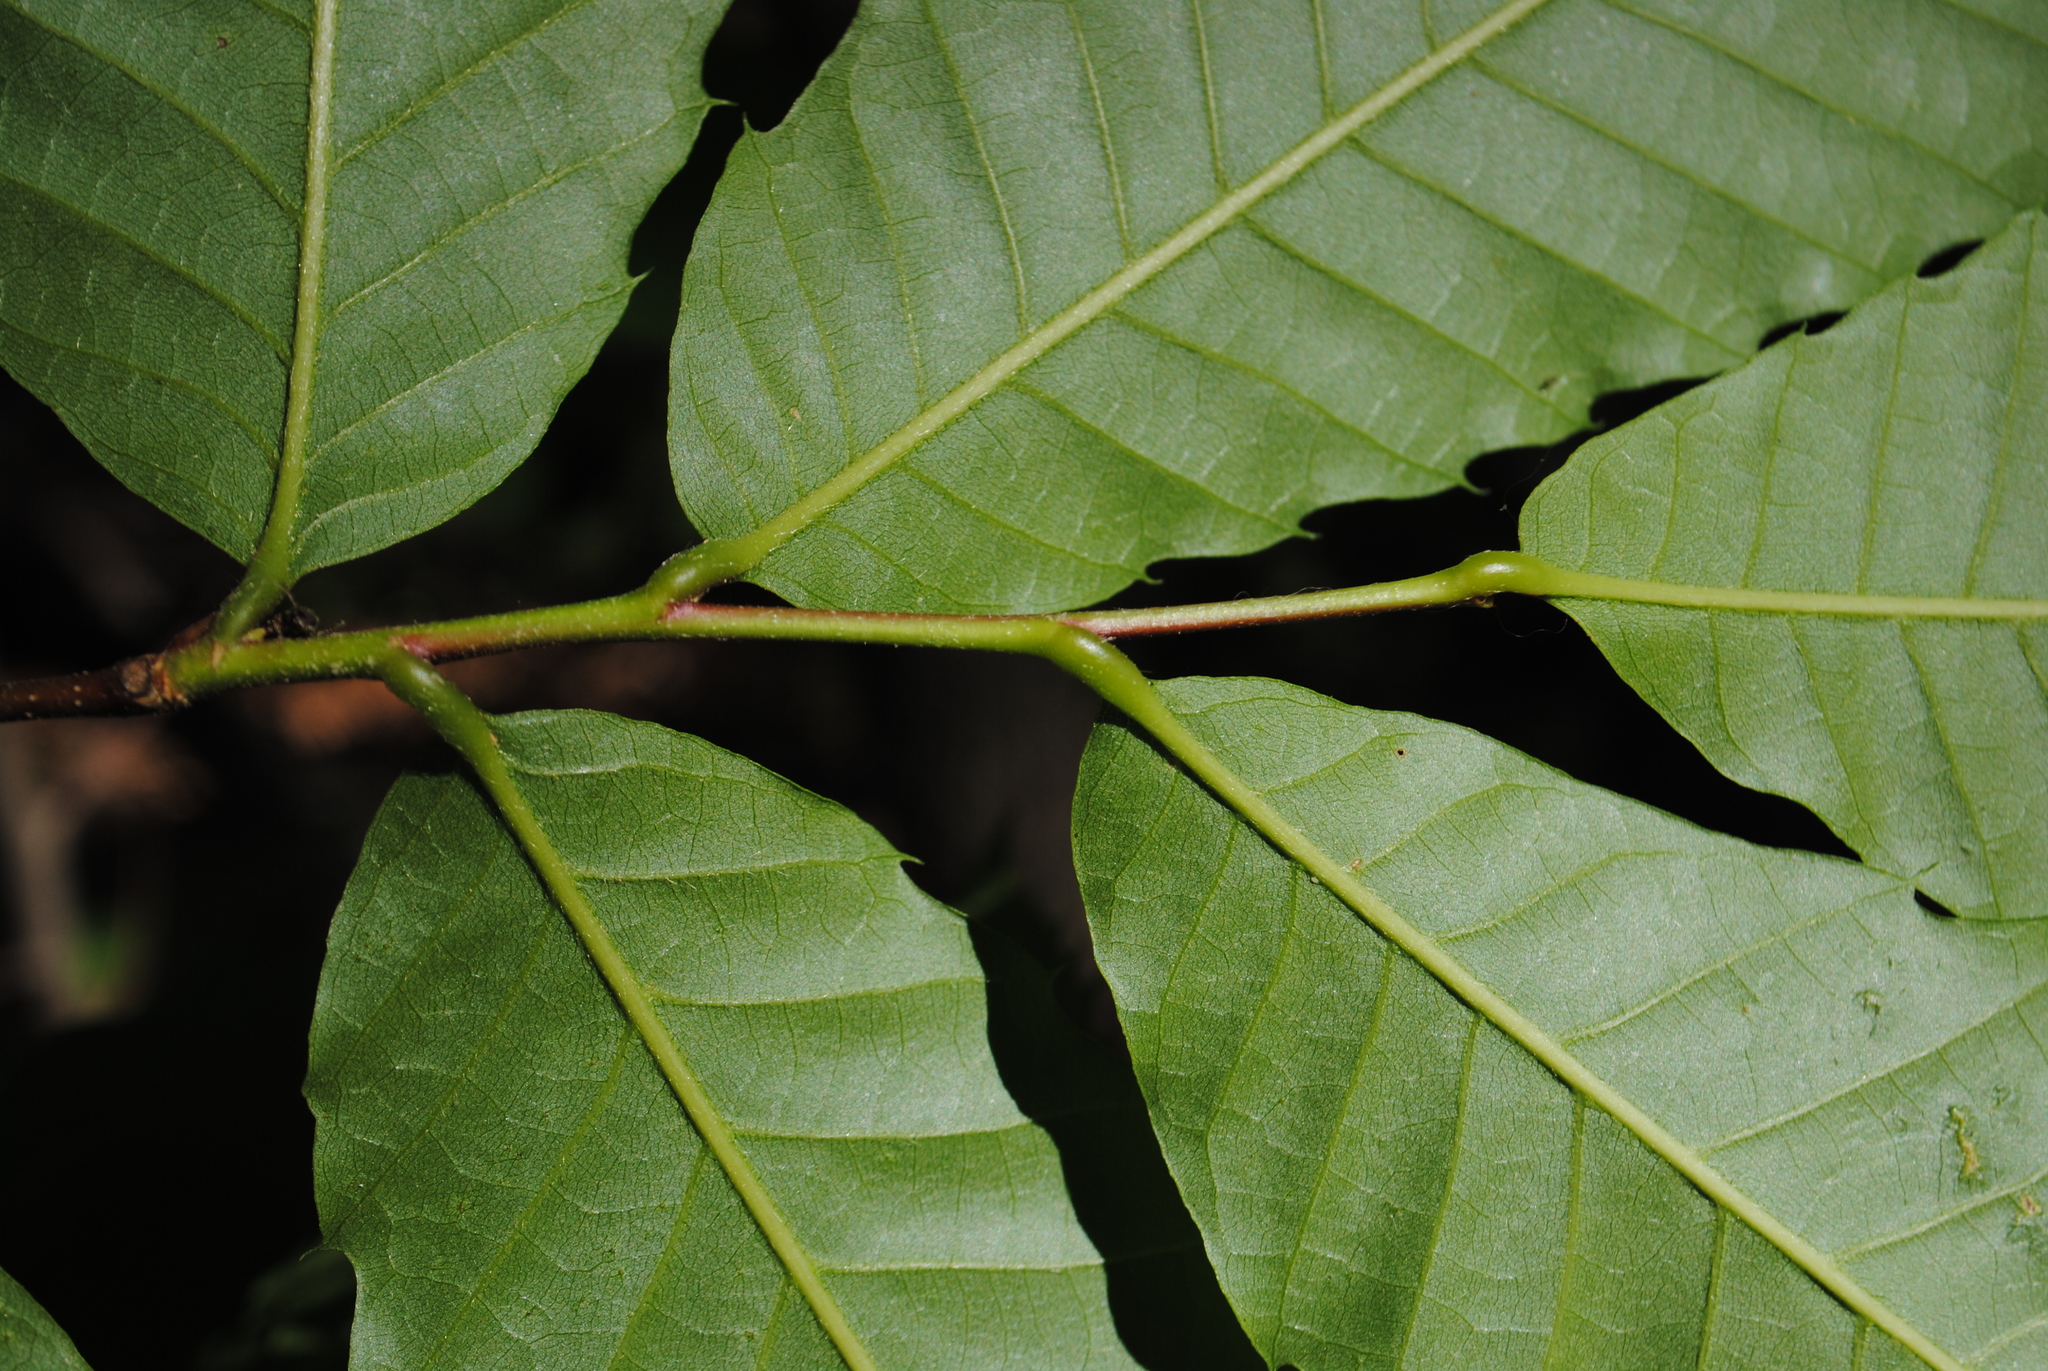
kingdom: Plantae
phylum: Tracheophyta
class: Magnoliopsida
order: Fagales
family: Fagaceae
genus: Castanea
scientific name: Castanea dentata
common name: American chestnut
